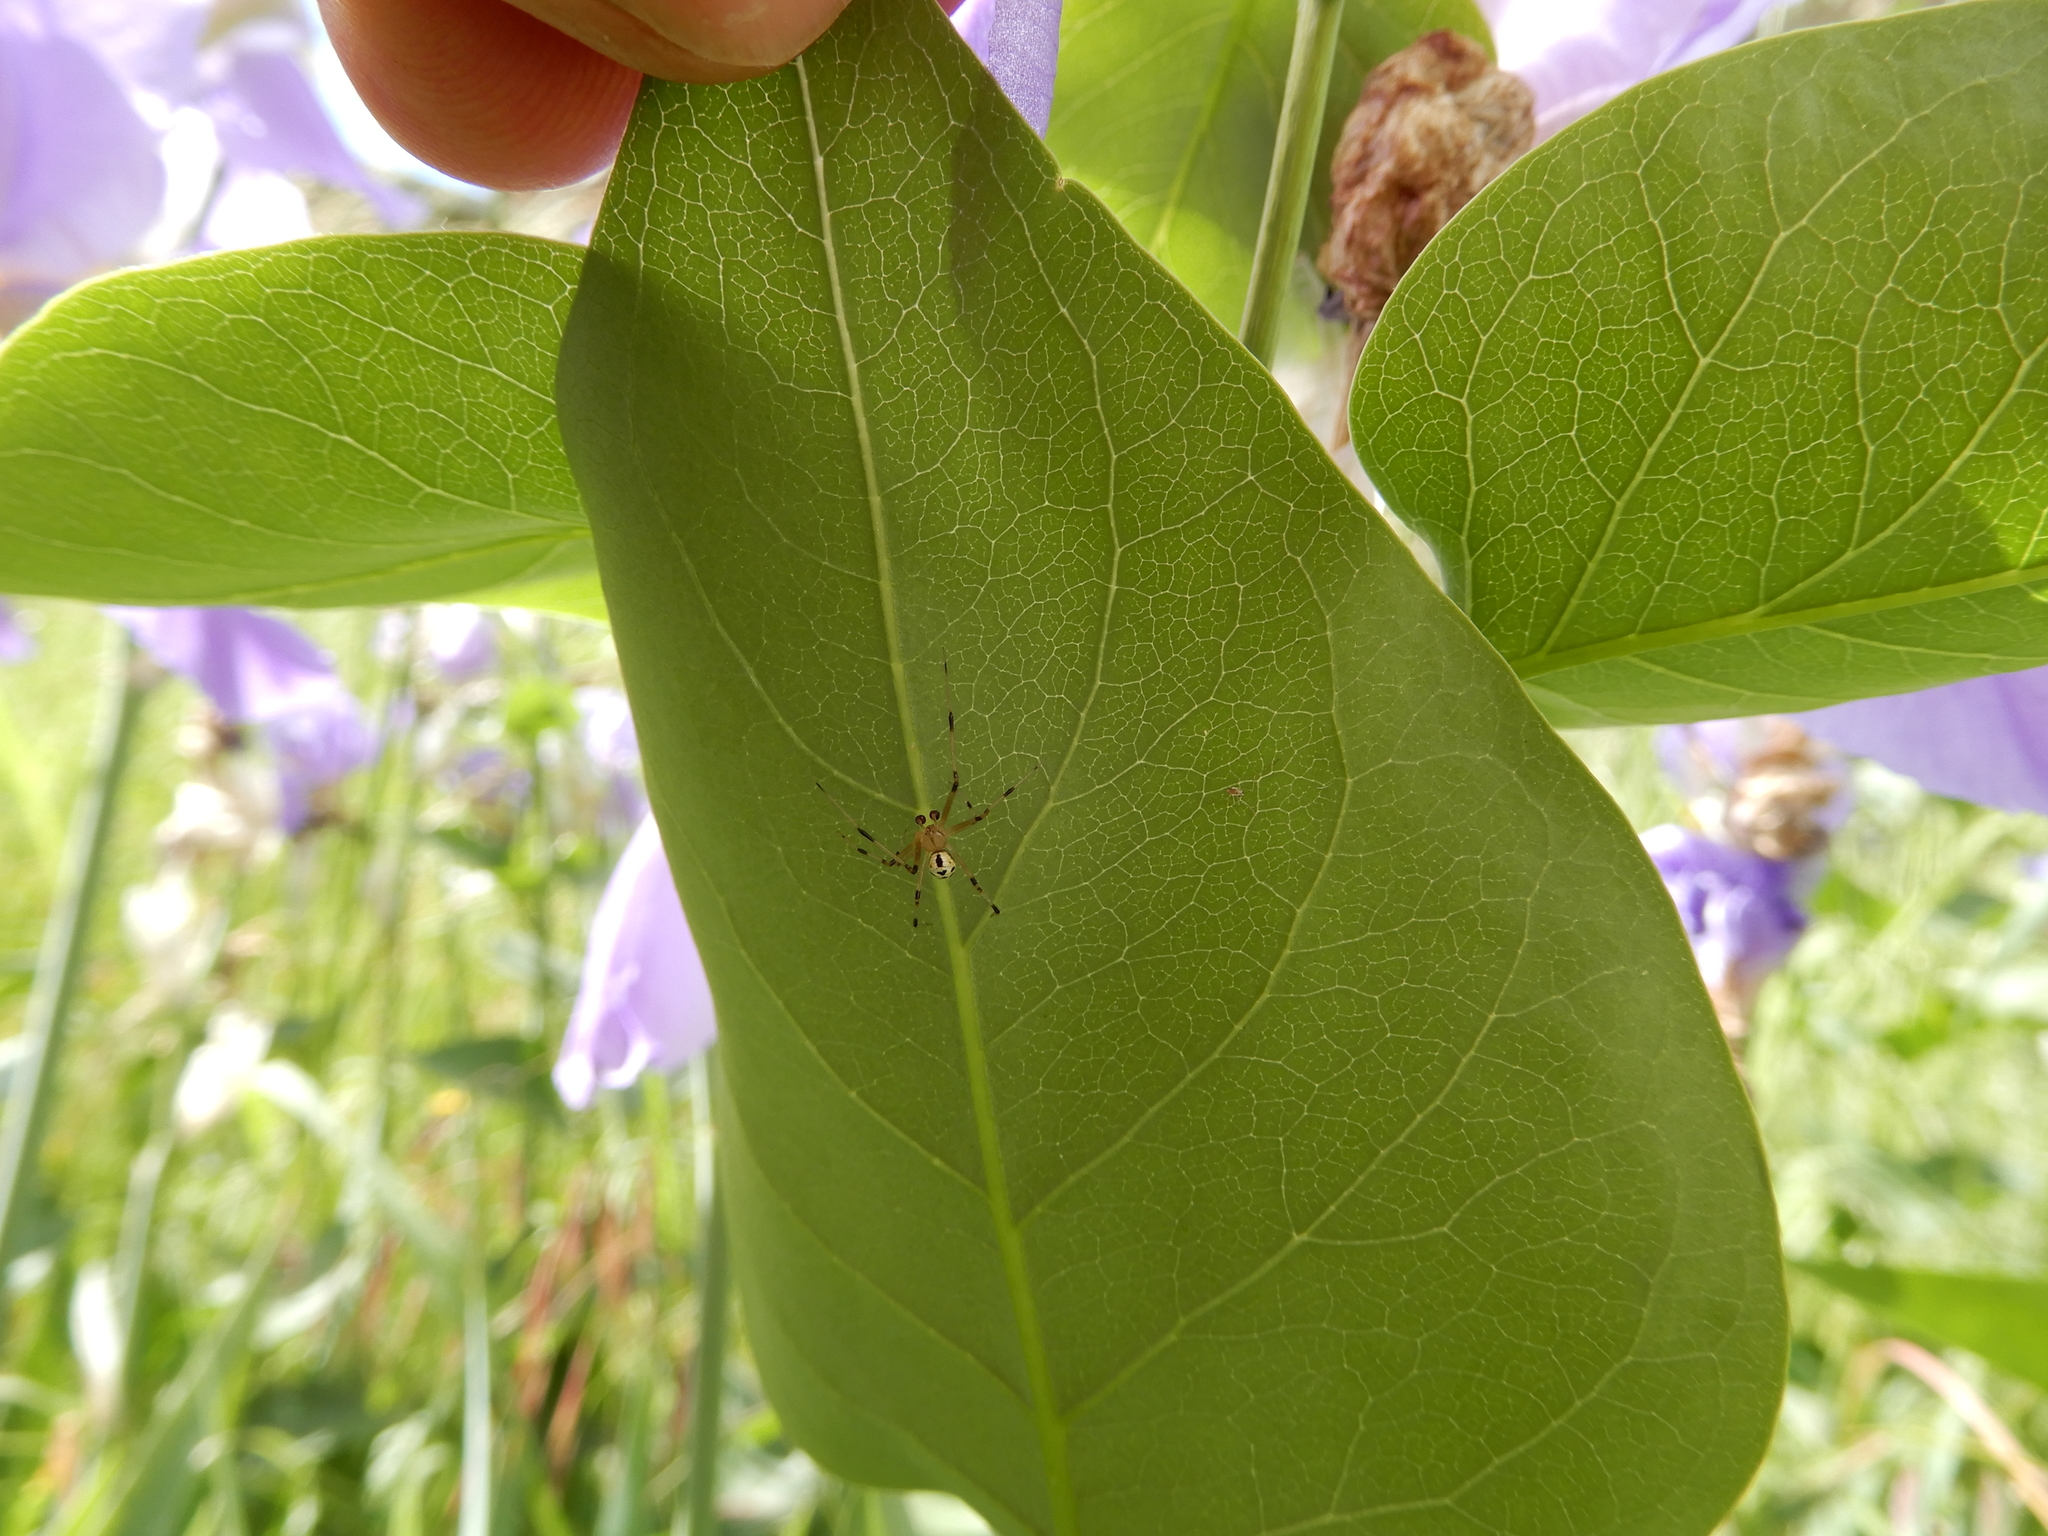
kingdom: Animalia
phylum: Arthropoda
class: Arachnida
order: Araneae
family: Theridiidae
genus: Heterotheridion
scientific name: Heterotheridion nigrovariegatum
